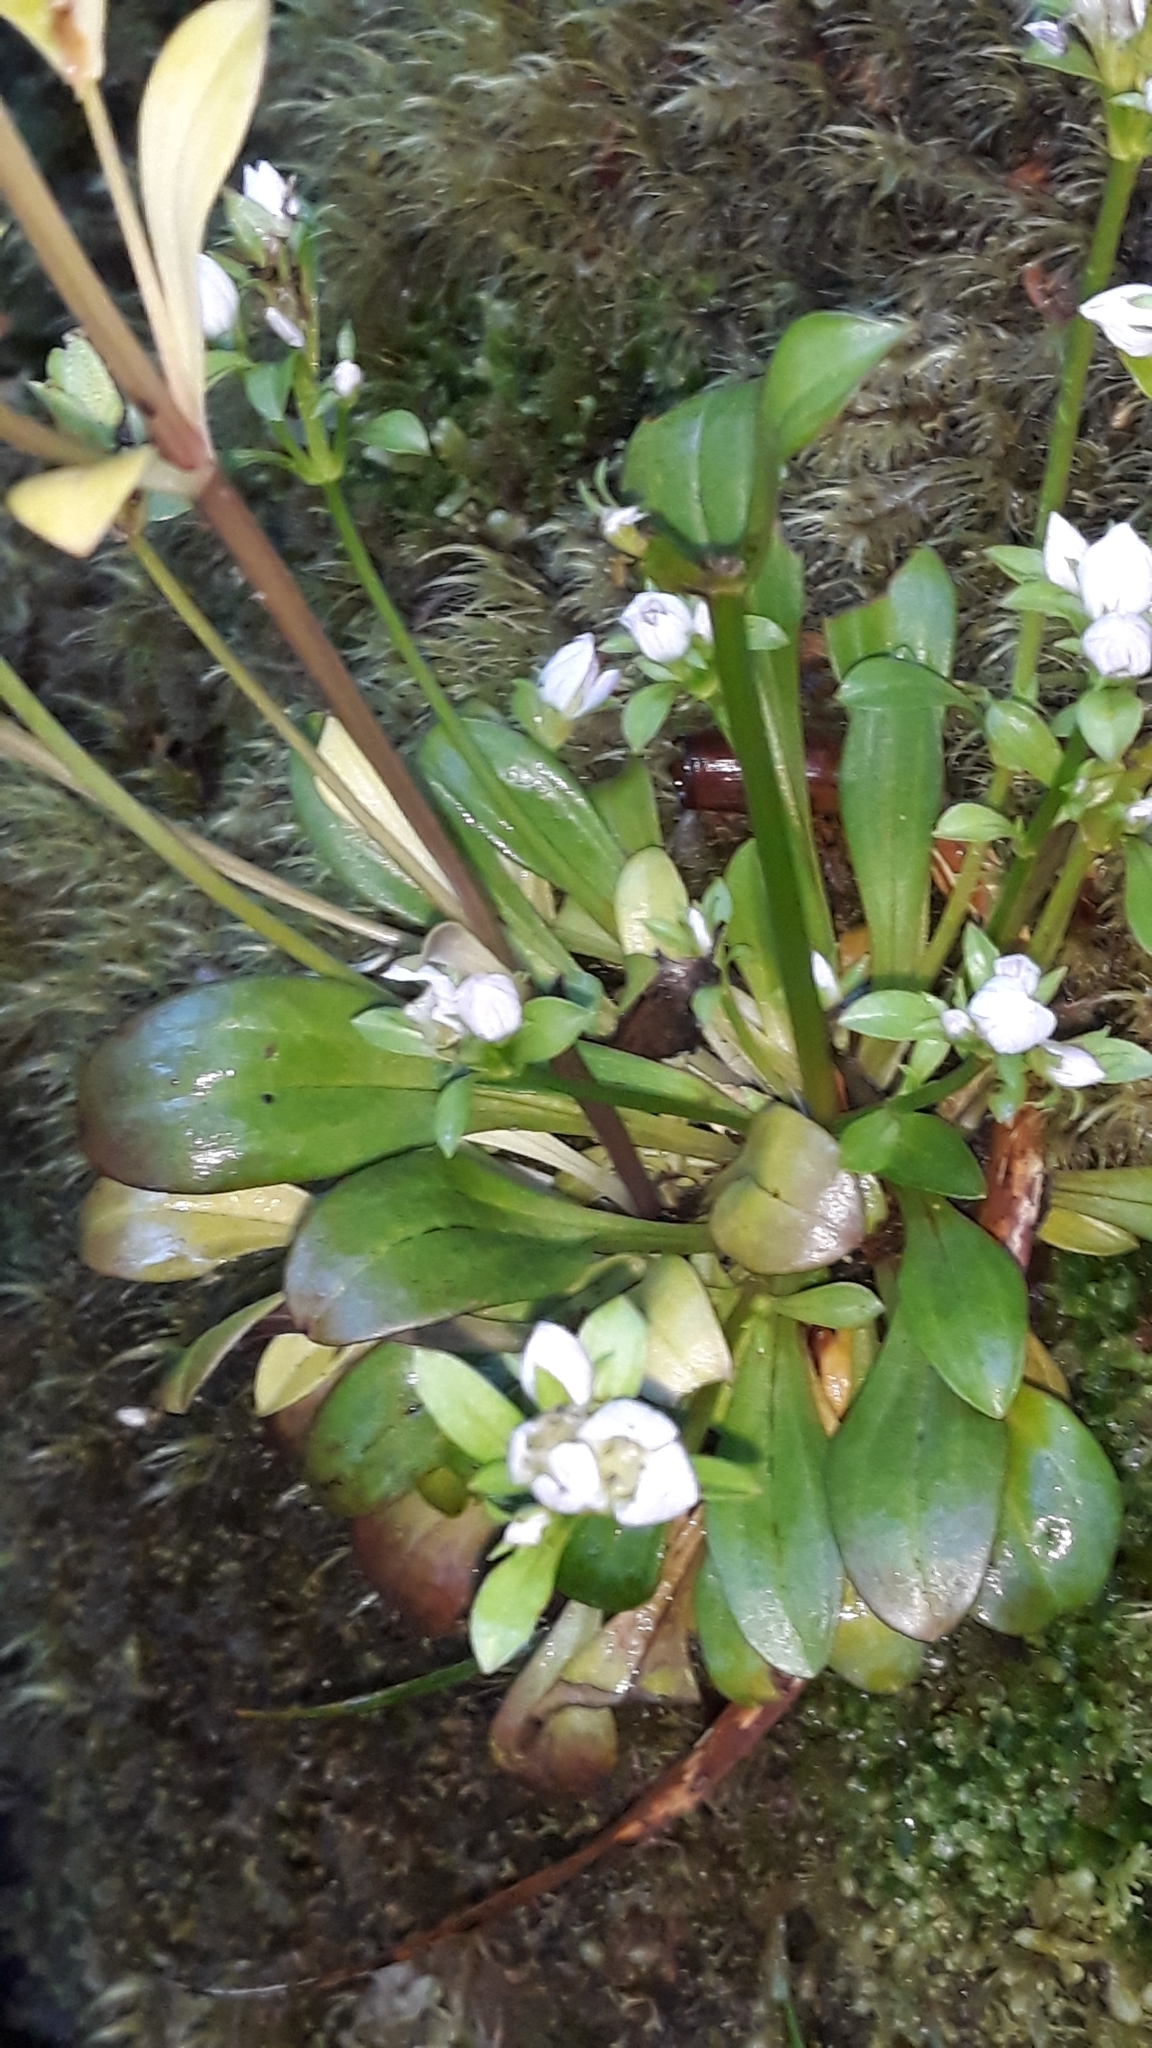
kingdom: Plantae
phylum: Tracheophyta
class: Magnoliopsida
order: Gentianales
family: Gentianaceae
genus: Gentianella
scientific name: Gentianella spenceri
